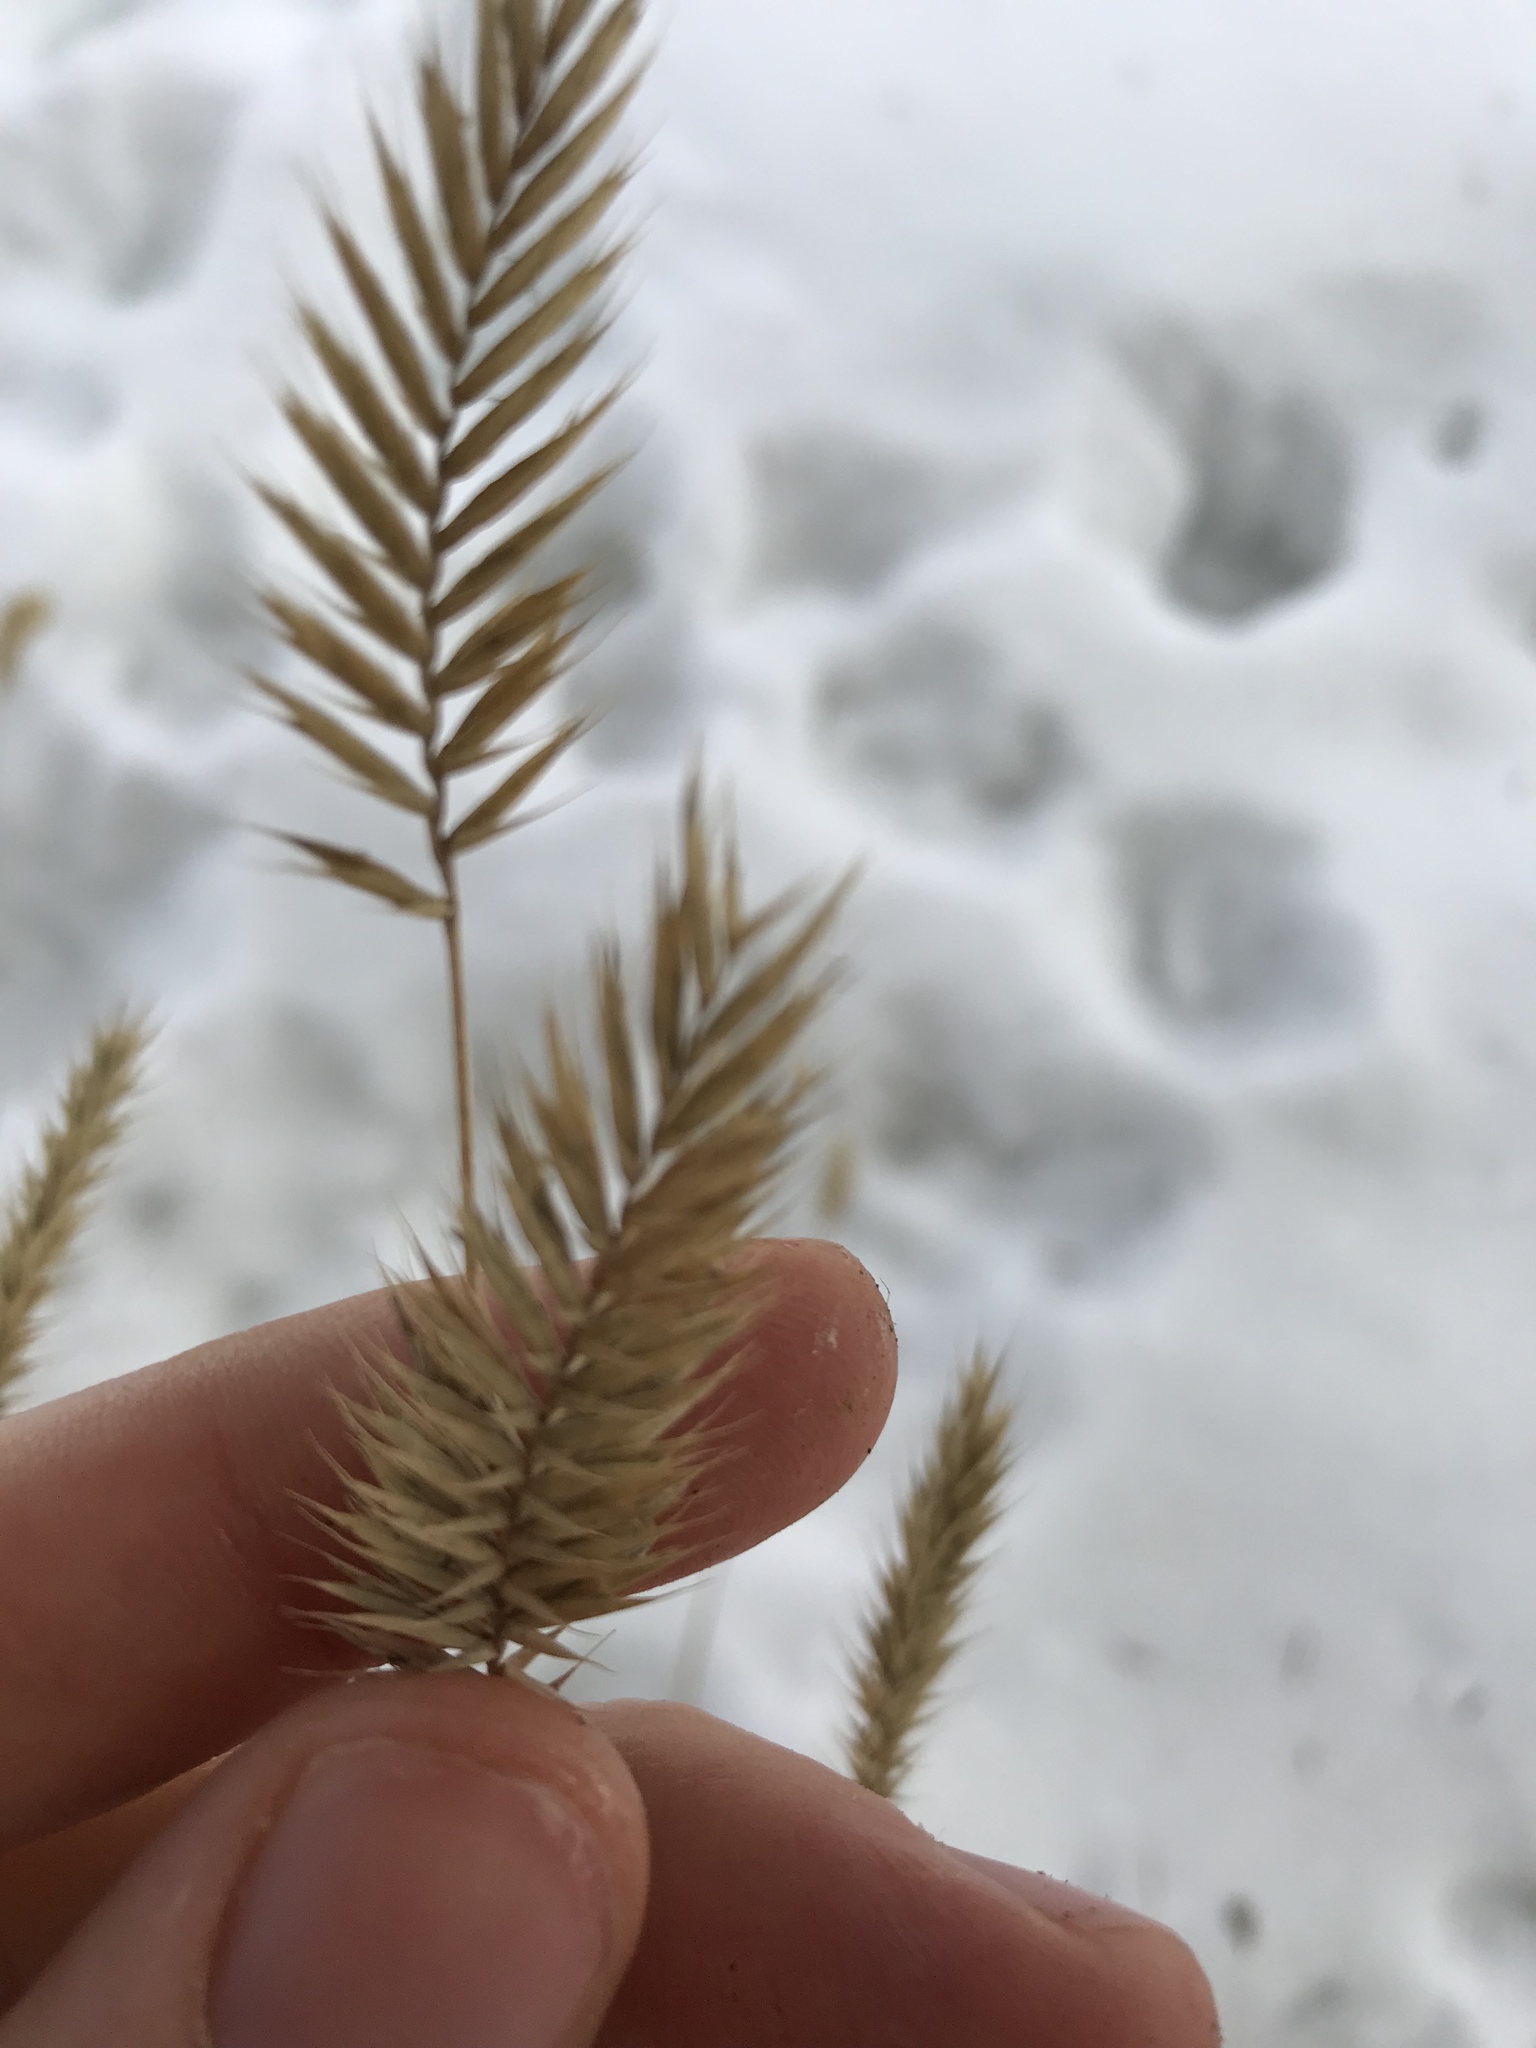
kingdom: Plantae
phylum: Tracheophyta
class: Liliopsida
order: Poales
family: Poaceae
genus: Agropyron
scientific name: Agropyron cristatum
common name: Crested wheatgrass
